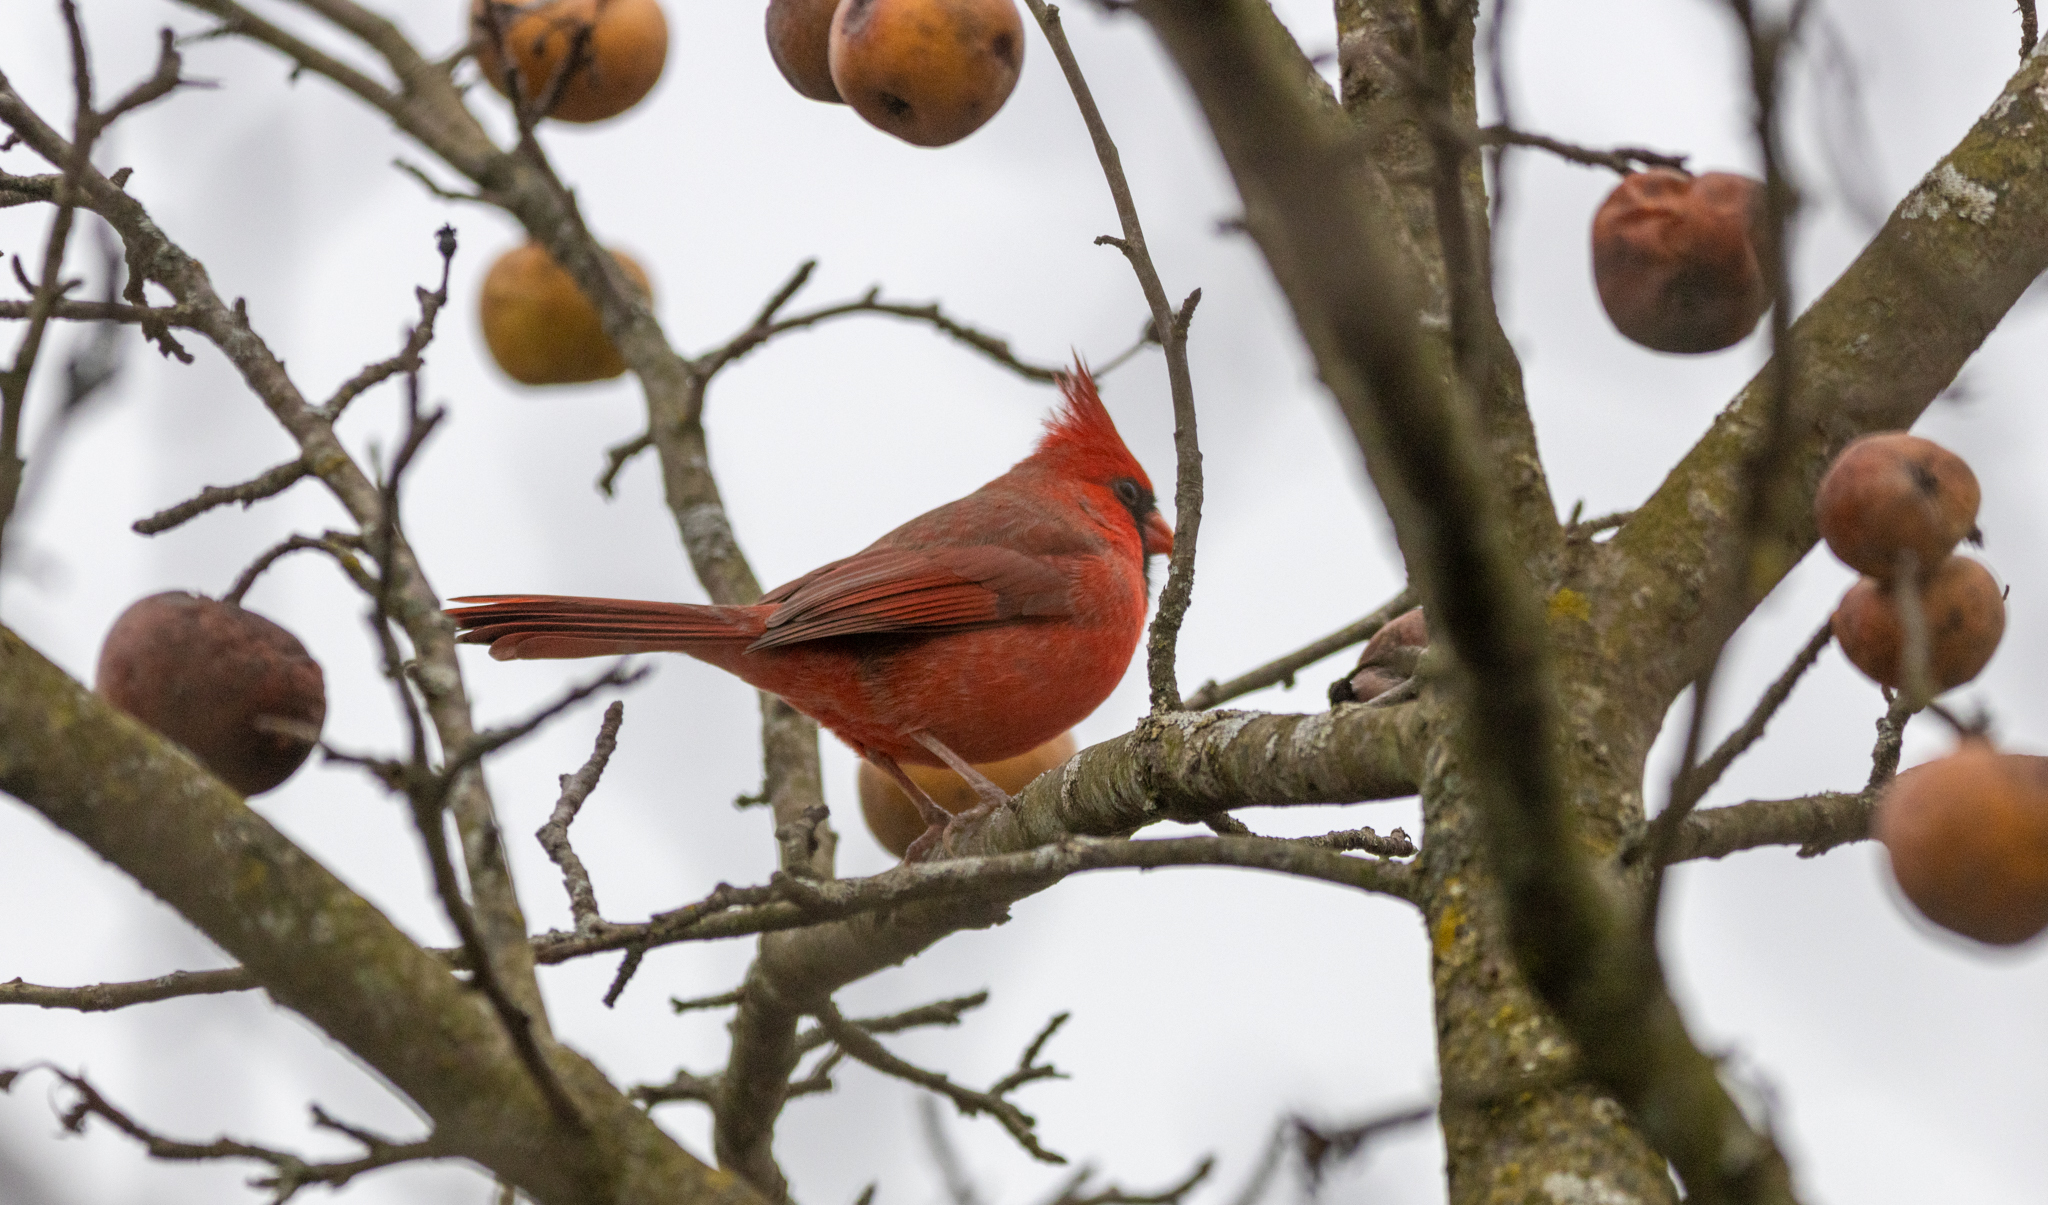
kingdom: Animalia
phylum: Chordata
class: Aves
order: Passeriformes
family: Cardinalidae
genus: Cardinalis
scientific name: Cardinalis cardinalis
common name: Northern cardinal
